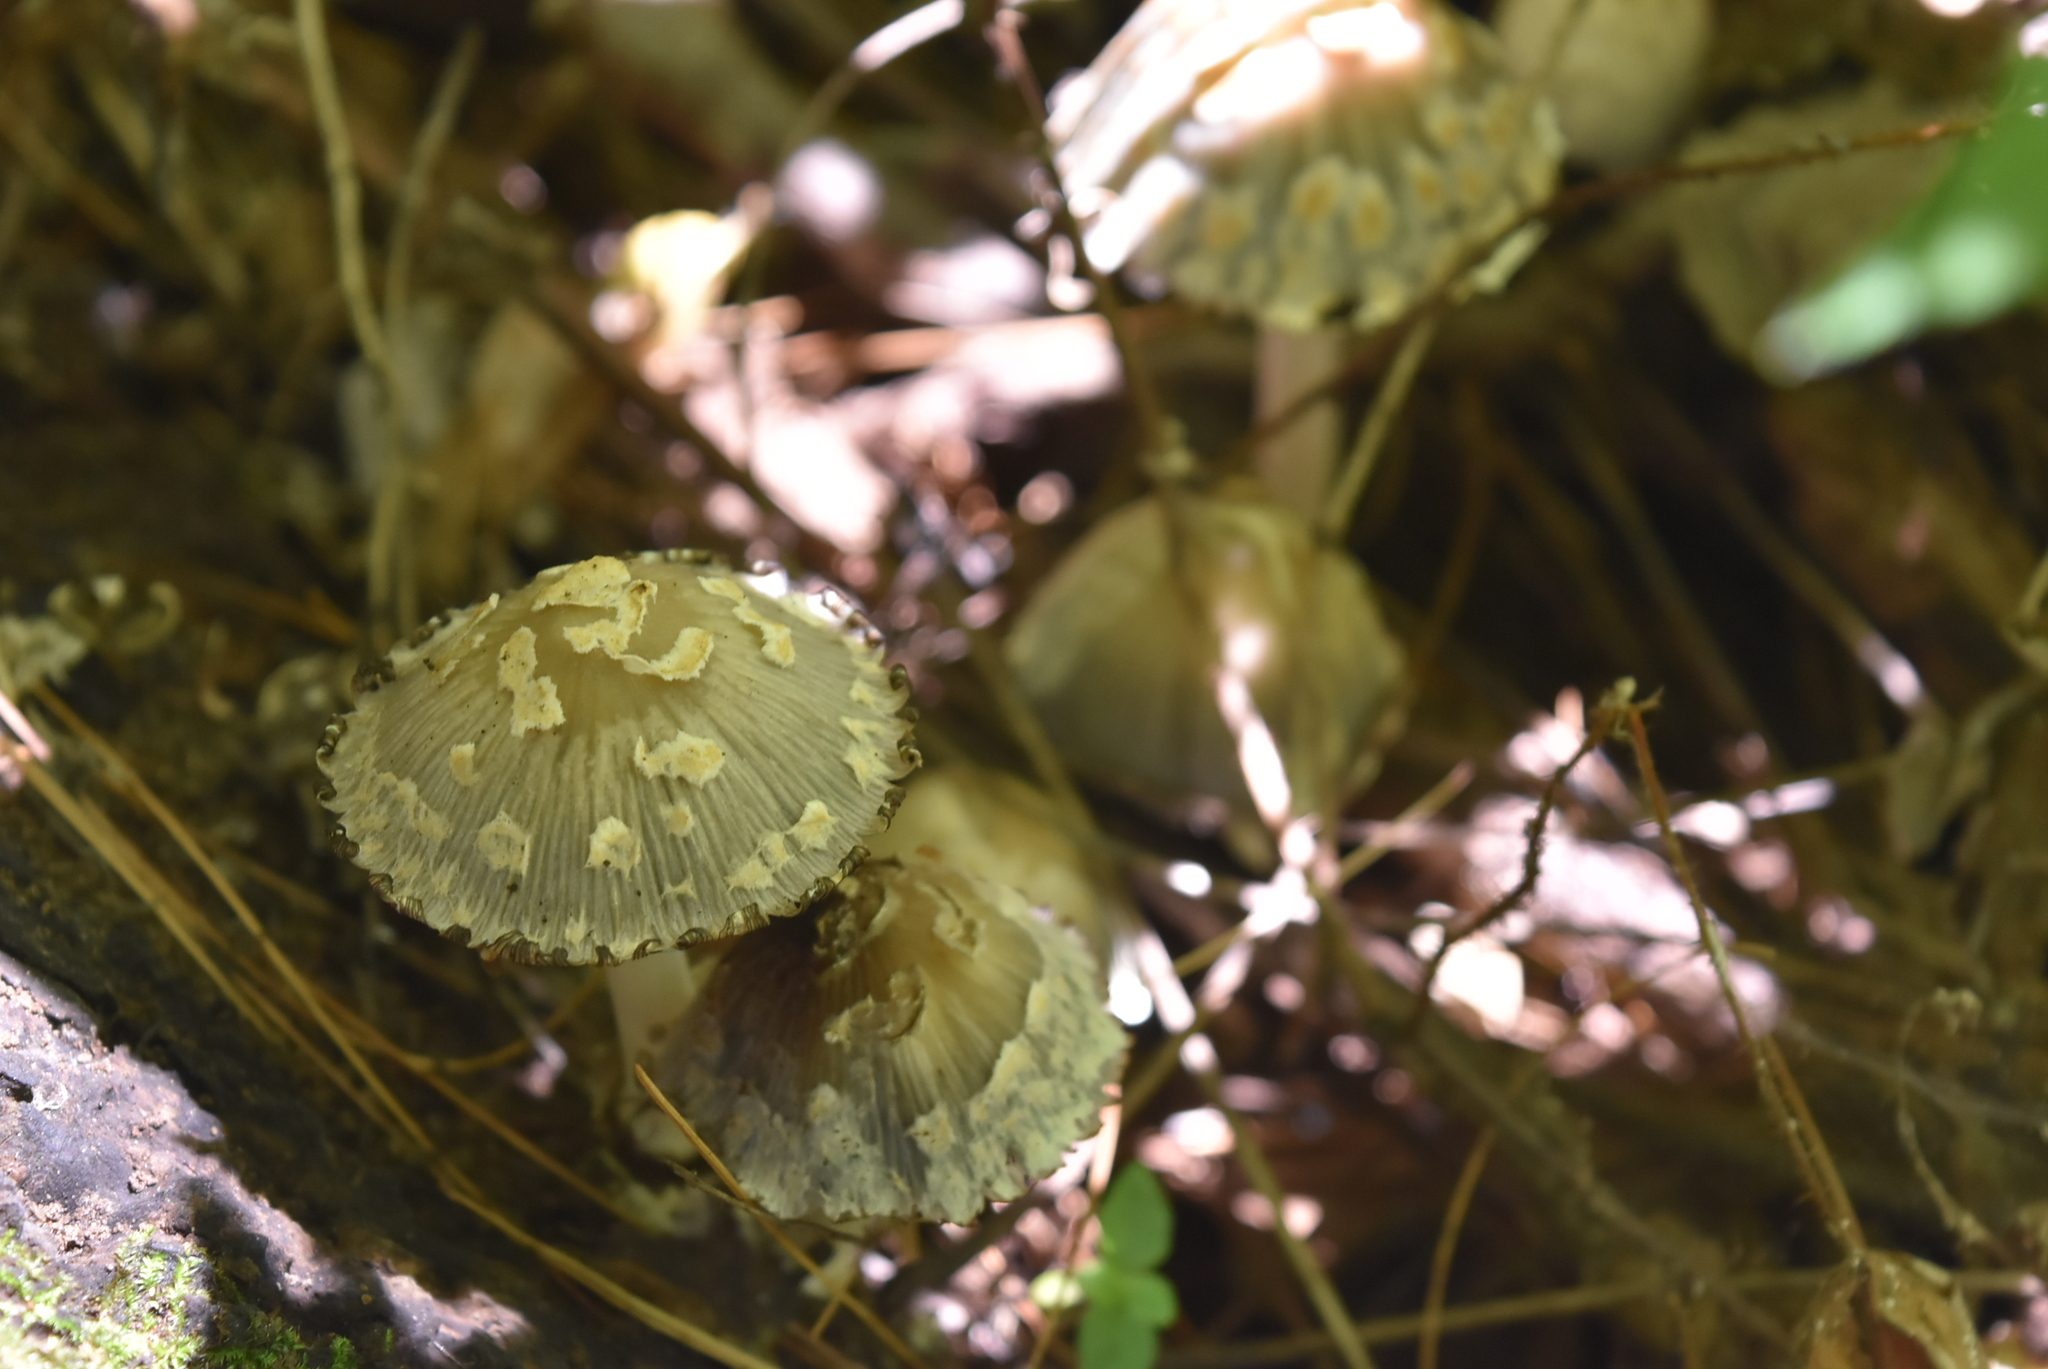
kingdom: Fungi
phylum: Basidiomycota
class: Agaricomycetes
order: Agaricales
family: Psathyrellaceae
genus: Coprinopsis
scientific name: Coprinopsis variegata
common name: Scaly ink cap
